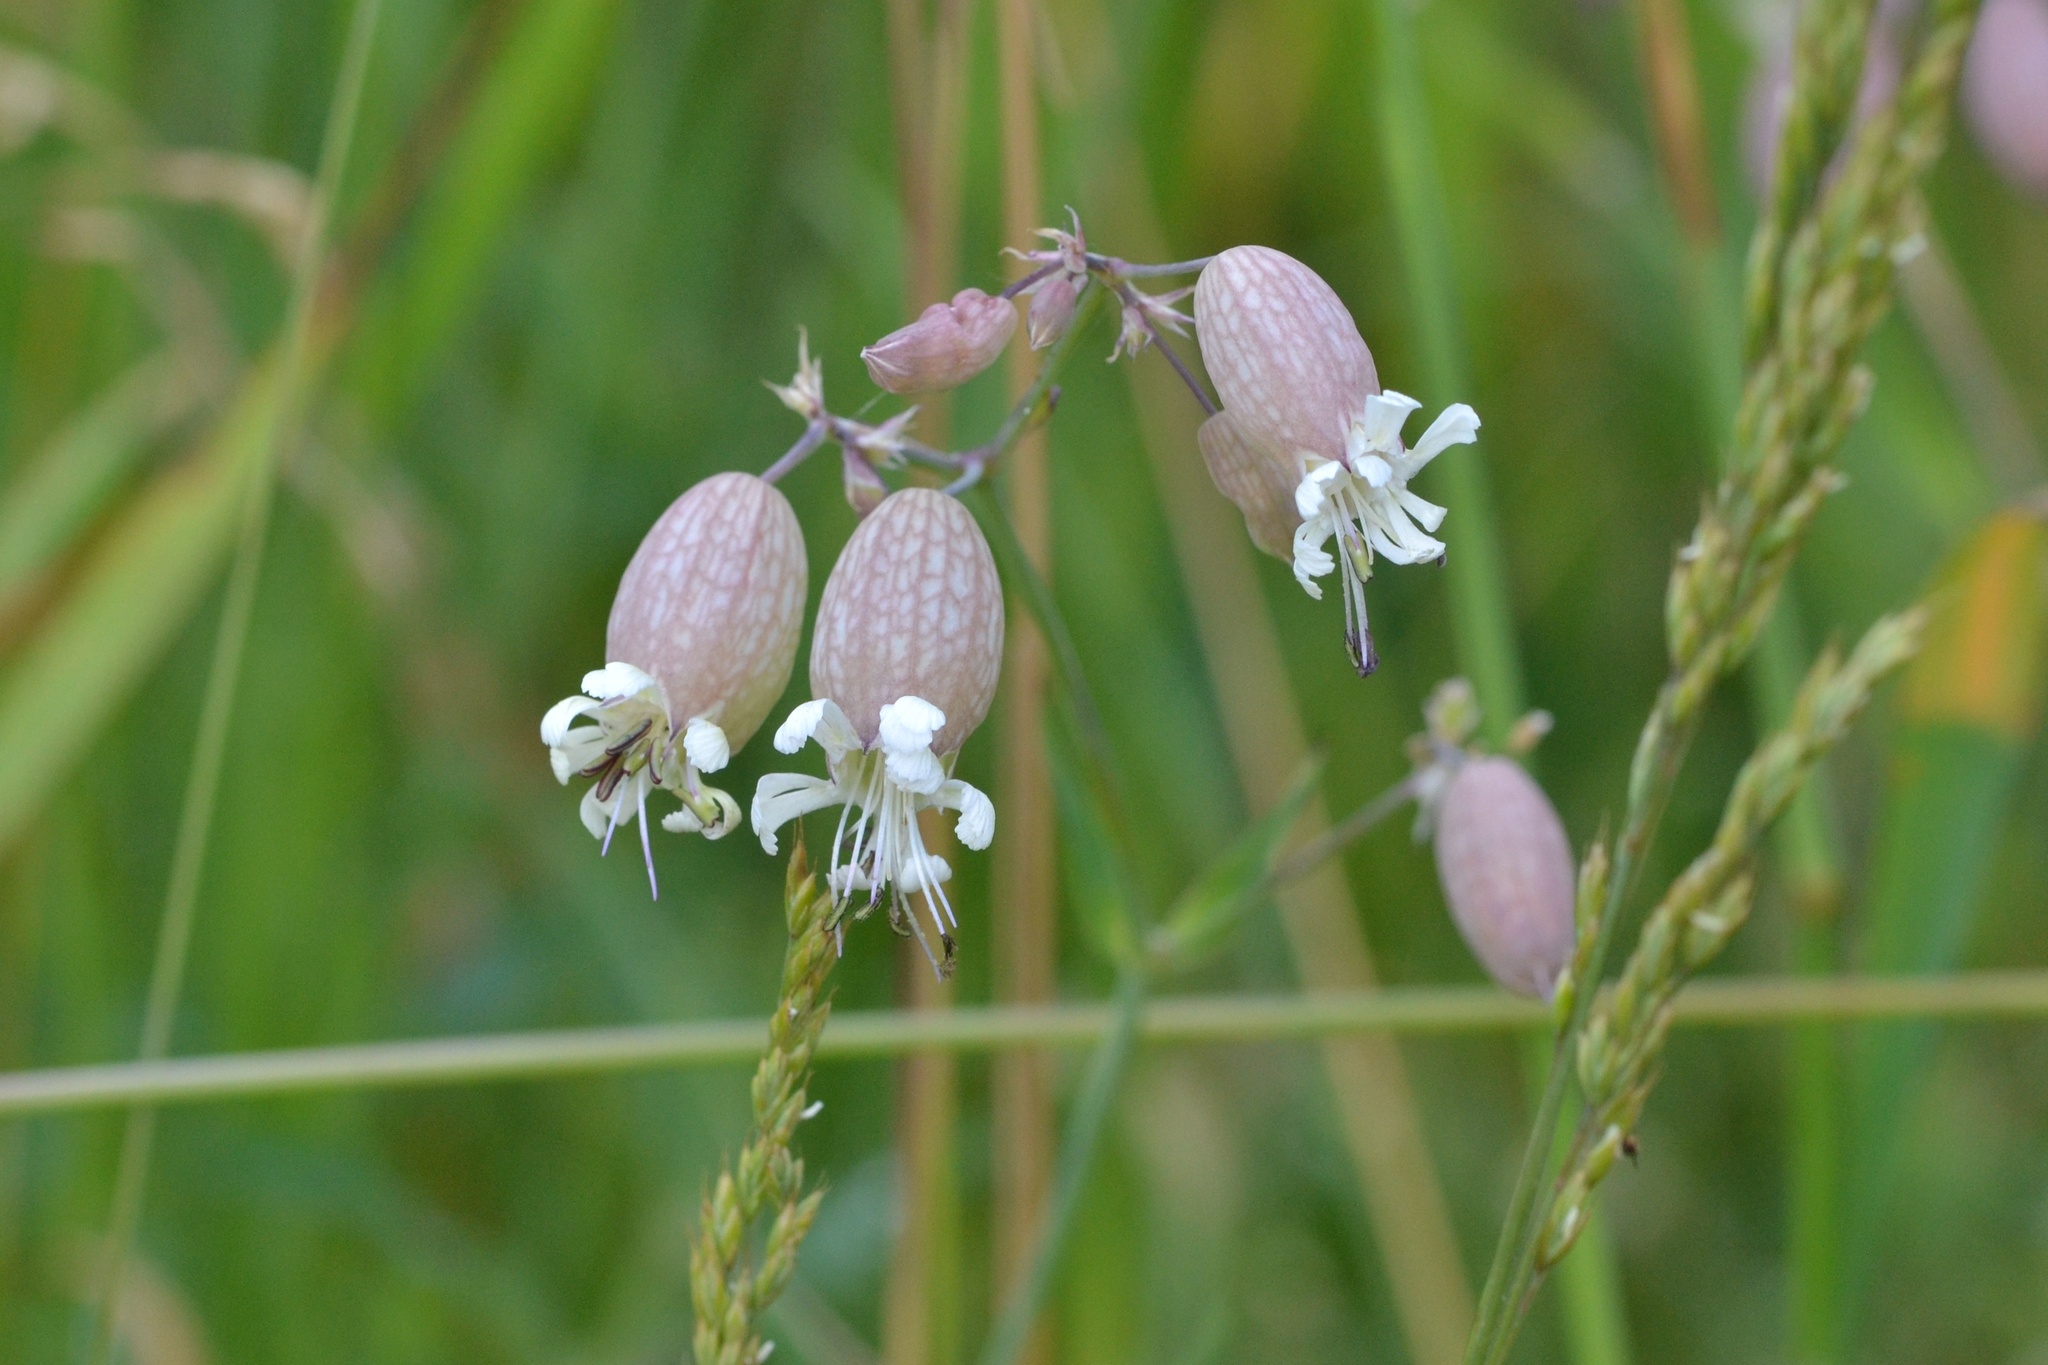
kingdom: Plantae
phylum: Tracheophyta
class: Magnoliopsida
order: Caryophyllales
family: Caryophyllaceae
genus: Silene
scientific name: Silene vulgaris
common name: Bladder campion
